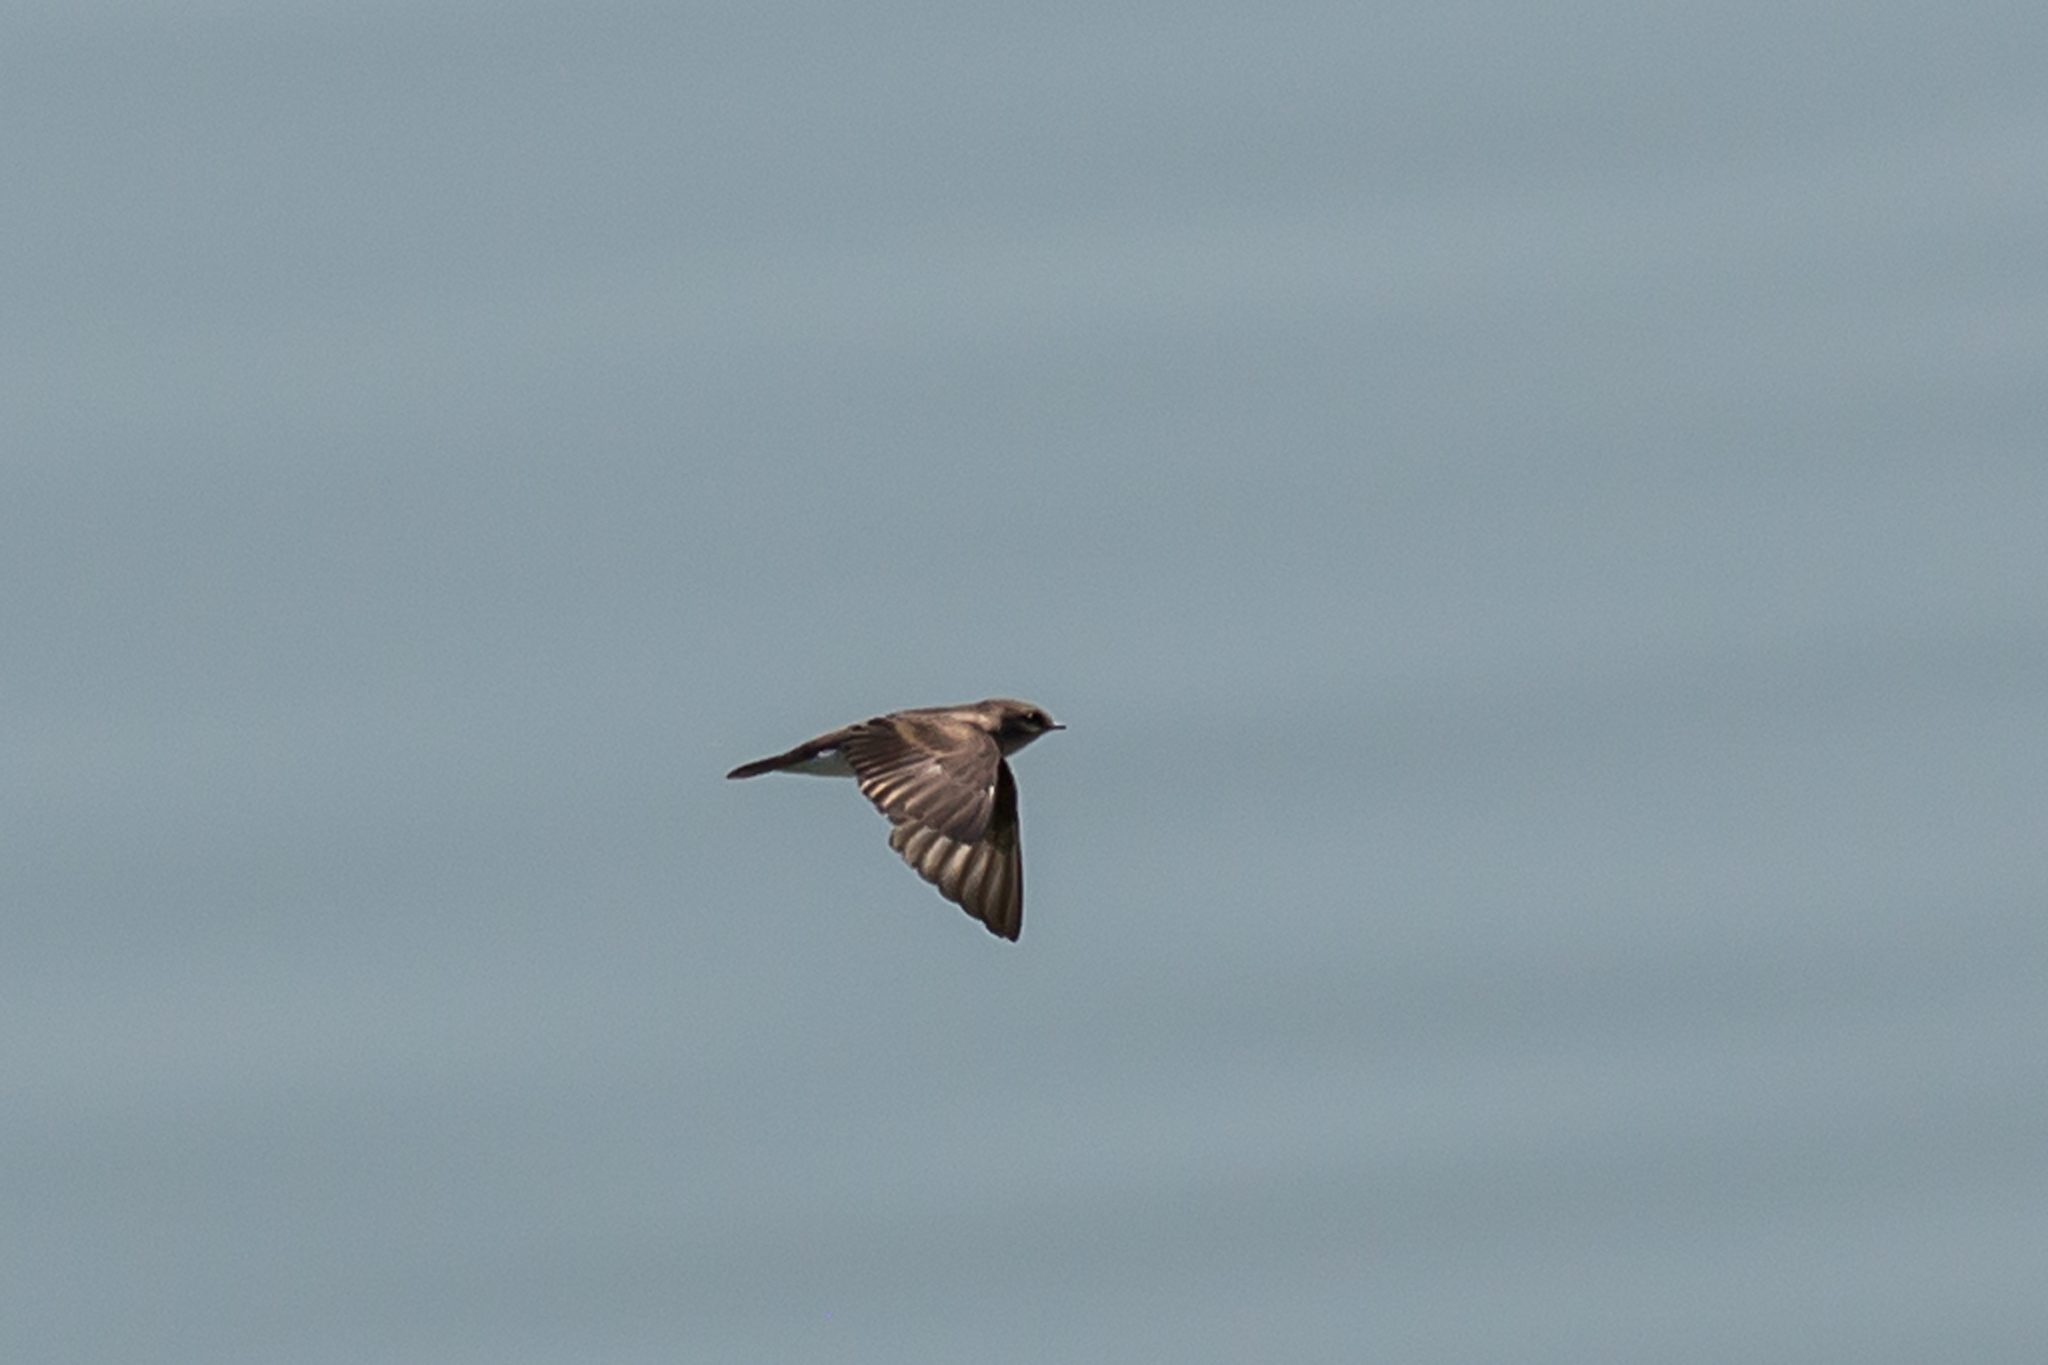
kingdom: Animalia
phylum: Chordata
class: Aves
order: Passeriformes
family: Hirundinidae
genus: Stelgidopteryx
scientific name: Stelgidopteryx serripennis
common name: Northern rough-winged swallow
